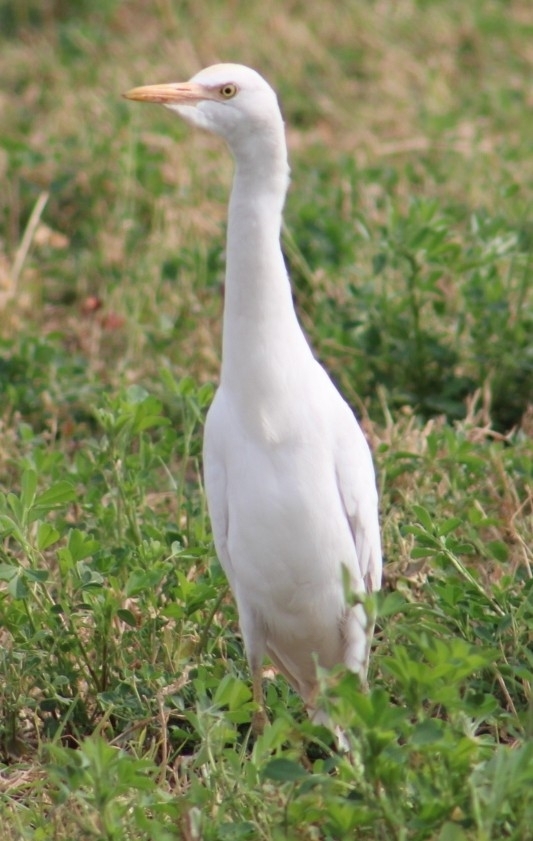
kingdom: Animalia
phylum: Chordata
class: Aves
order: Pelecaniformes
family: Ardeidae
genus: Bubulcus
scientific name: Bubulcus ibis
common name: Cattle egret
